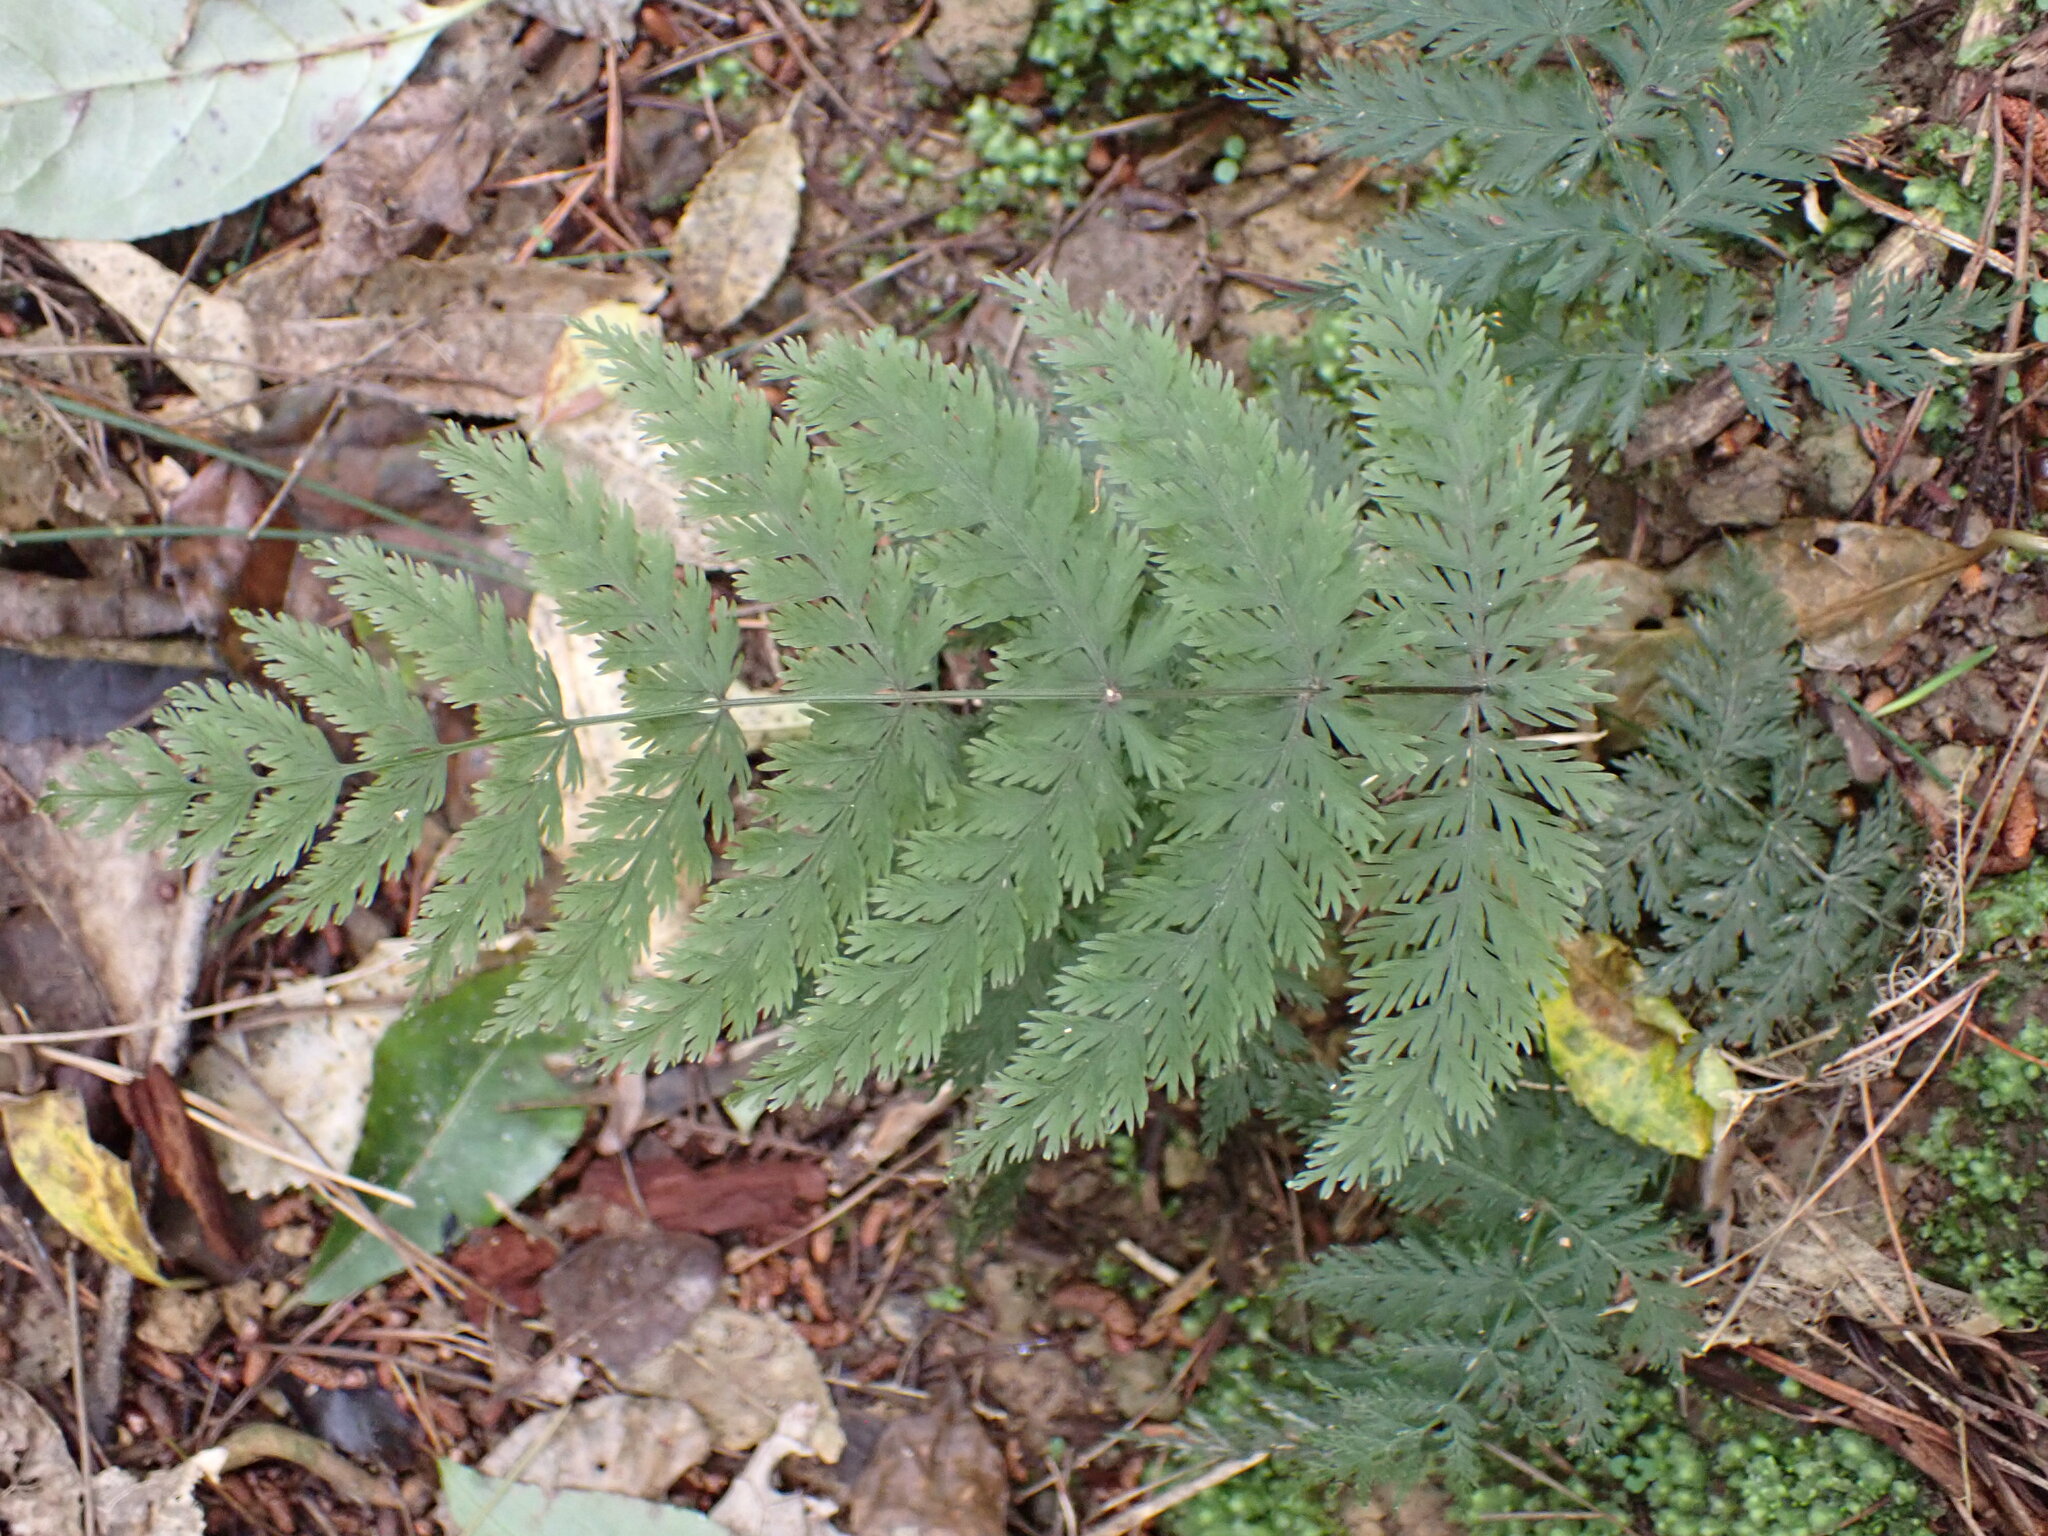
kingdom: Plantae
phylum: Tracheophyta
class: Polypodiopsida
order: Osmundales
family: Osmundaceae
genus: Leptopteris
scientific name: Leptopteris hymenophylloides
